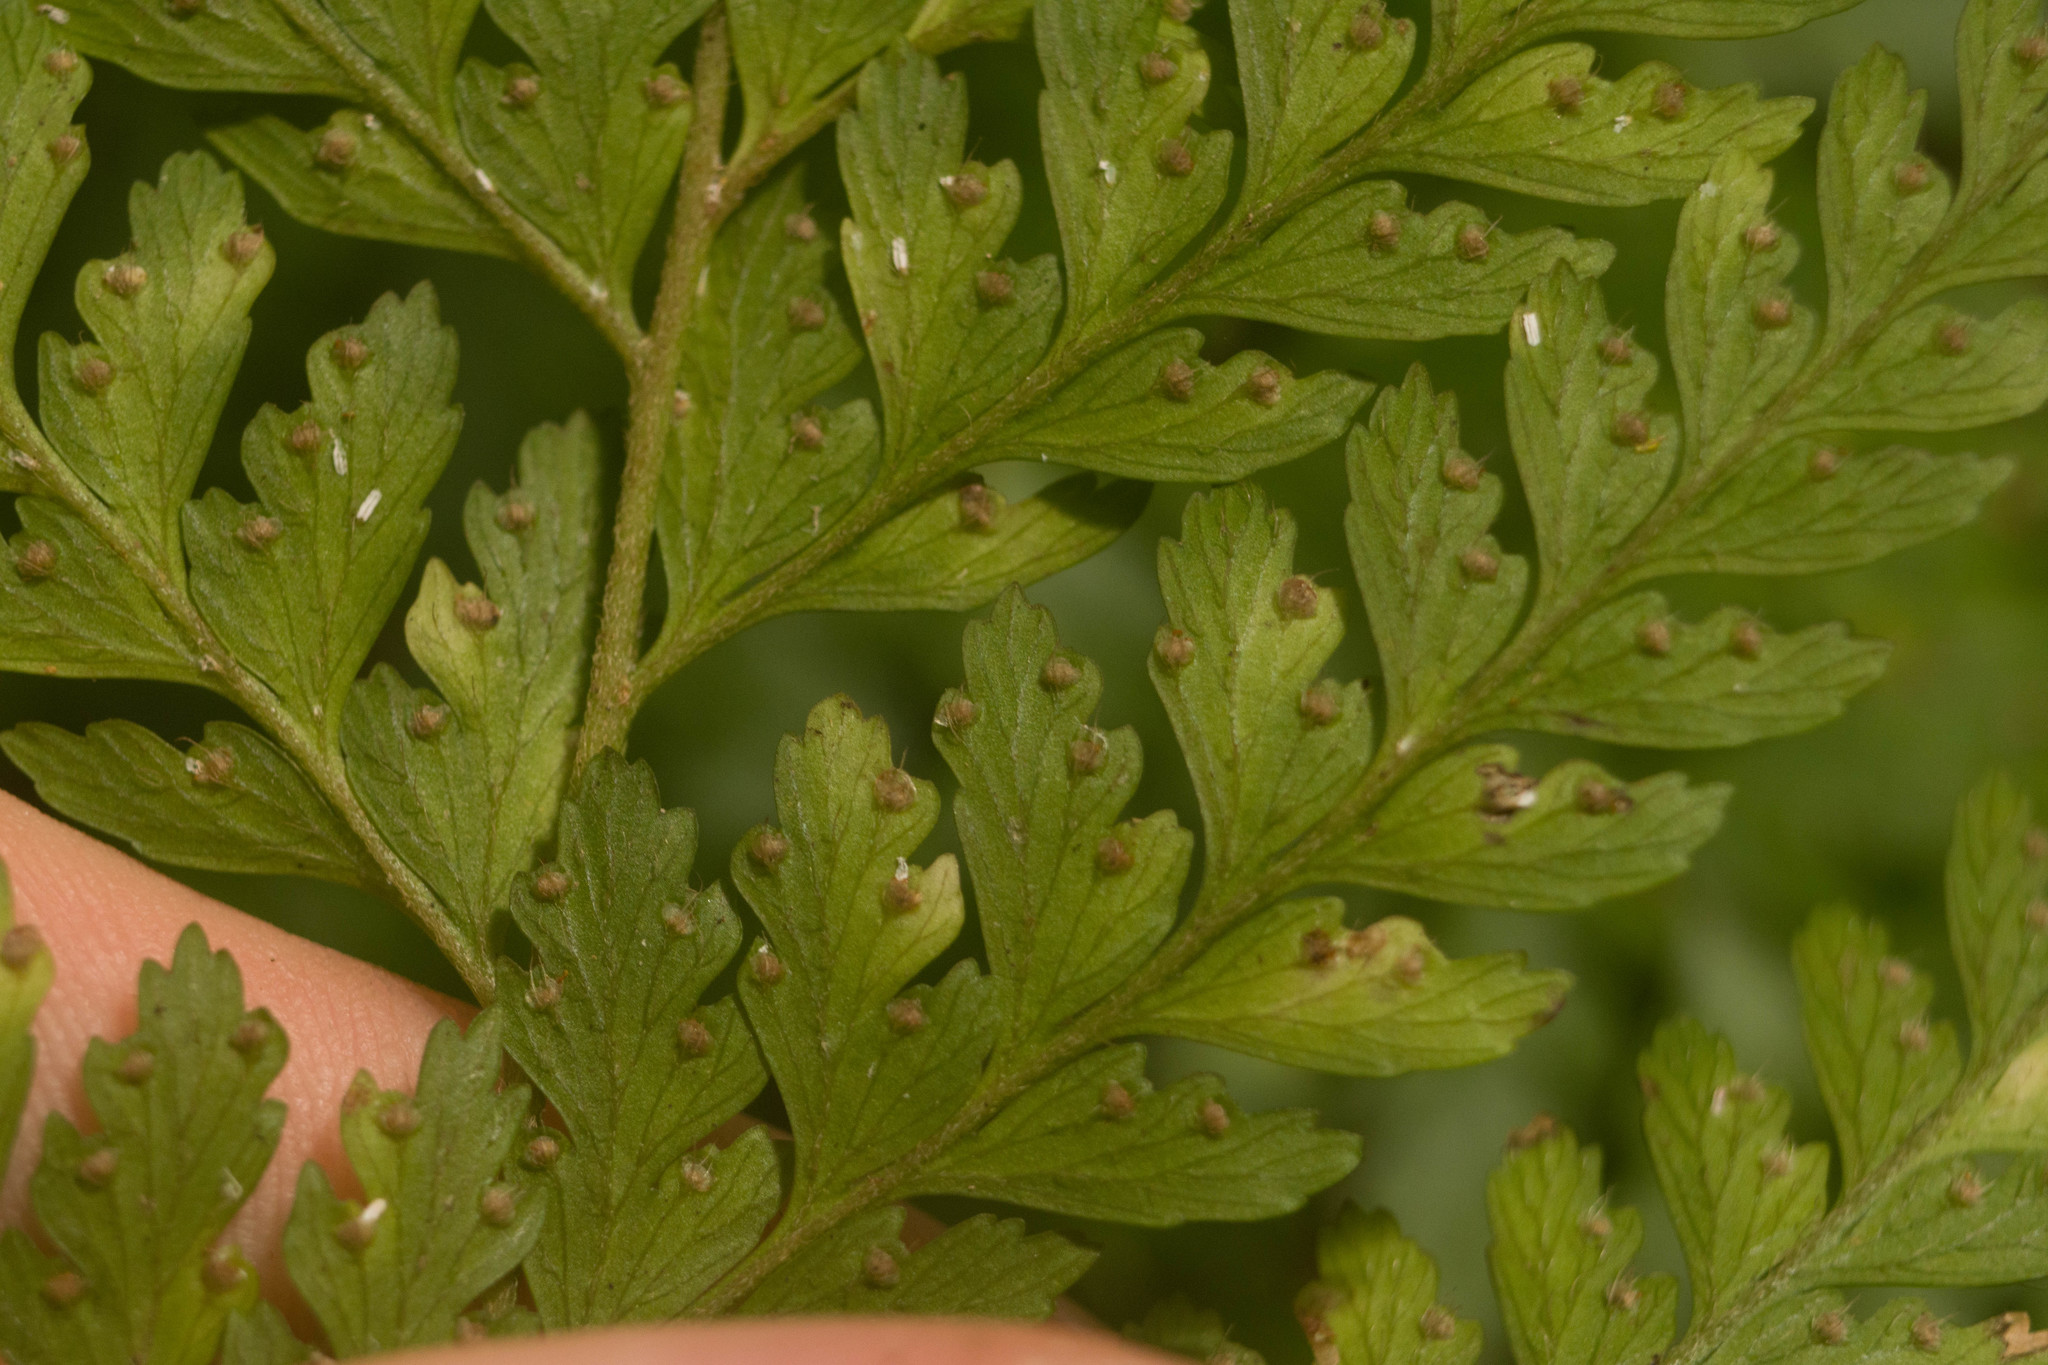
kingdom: Plantae
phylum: Tracheophyta
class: Polypodiopsida
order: Polypodiales
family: Dennstaedtiaceae
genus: Microlepia
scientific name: Microlepia setosa
